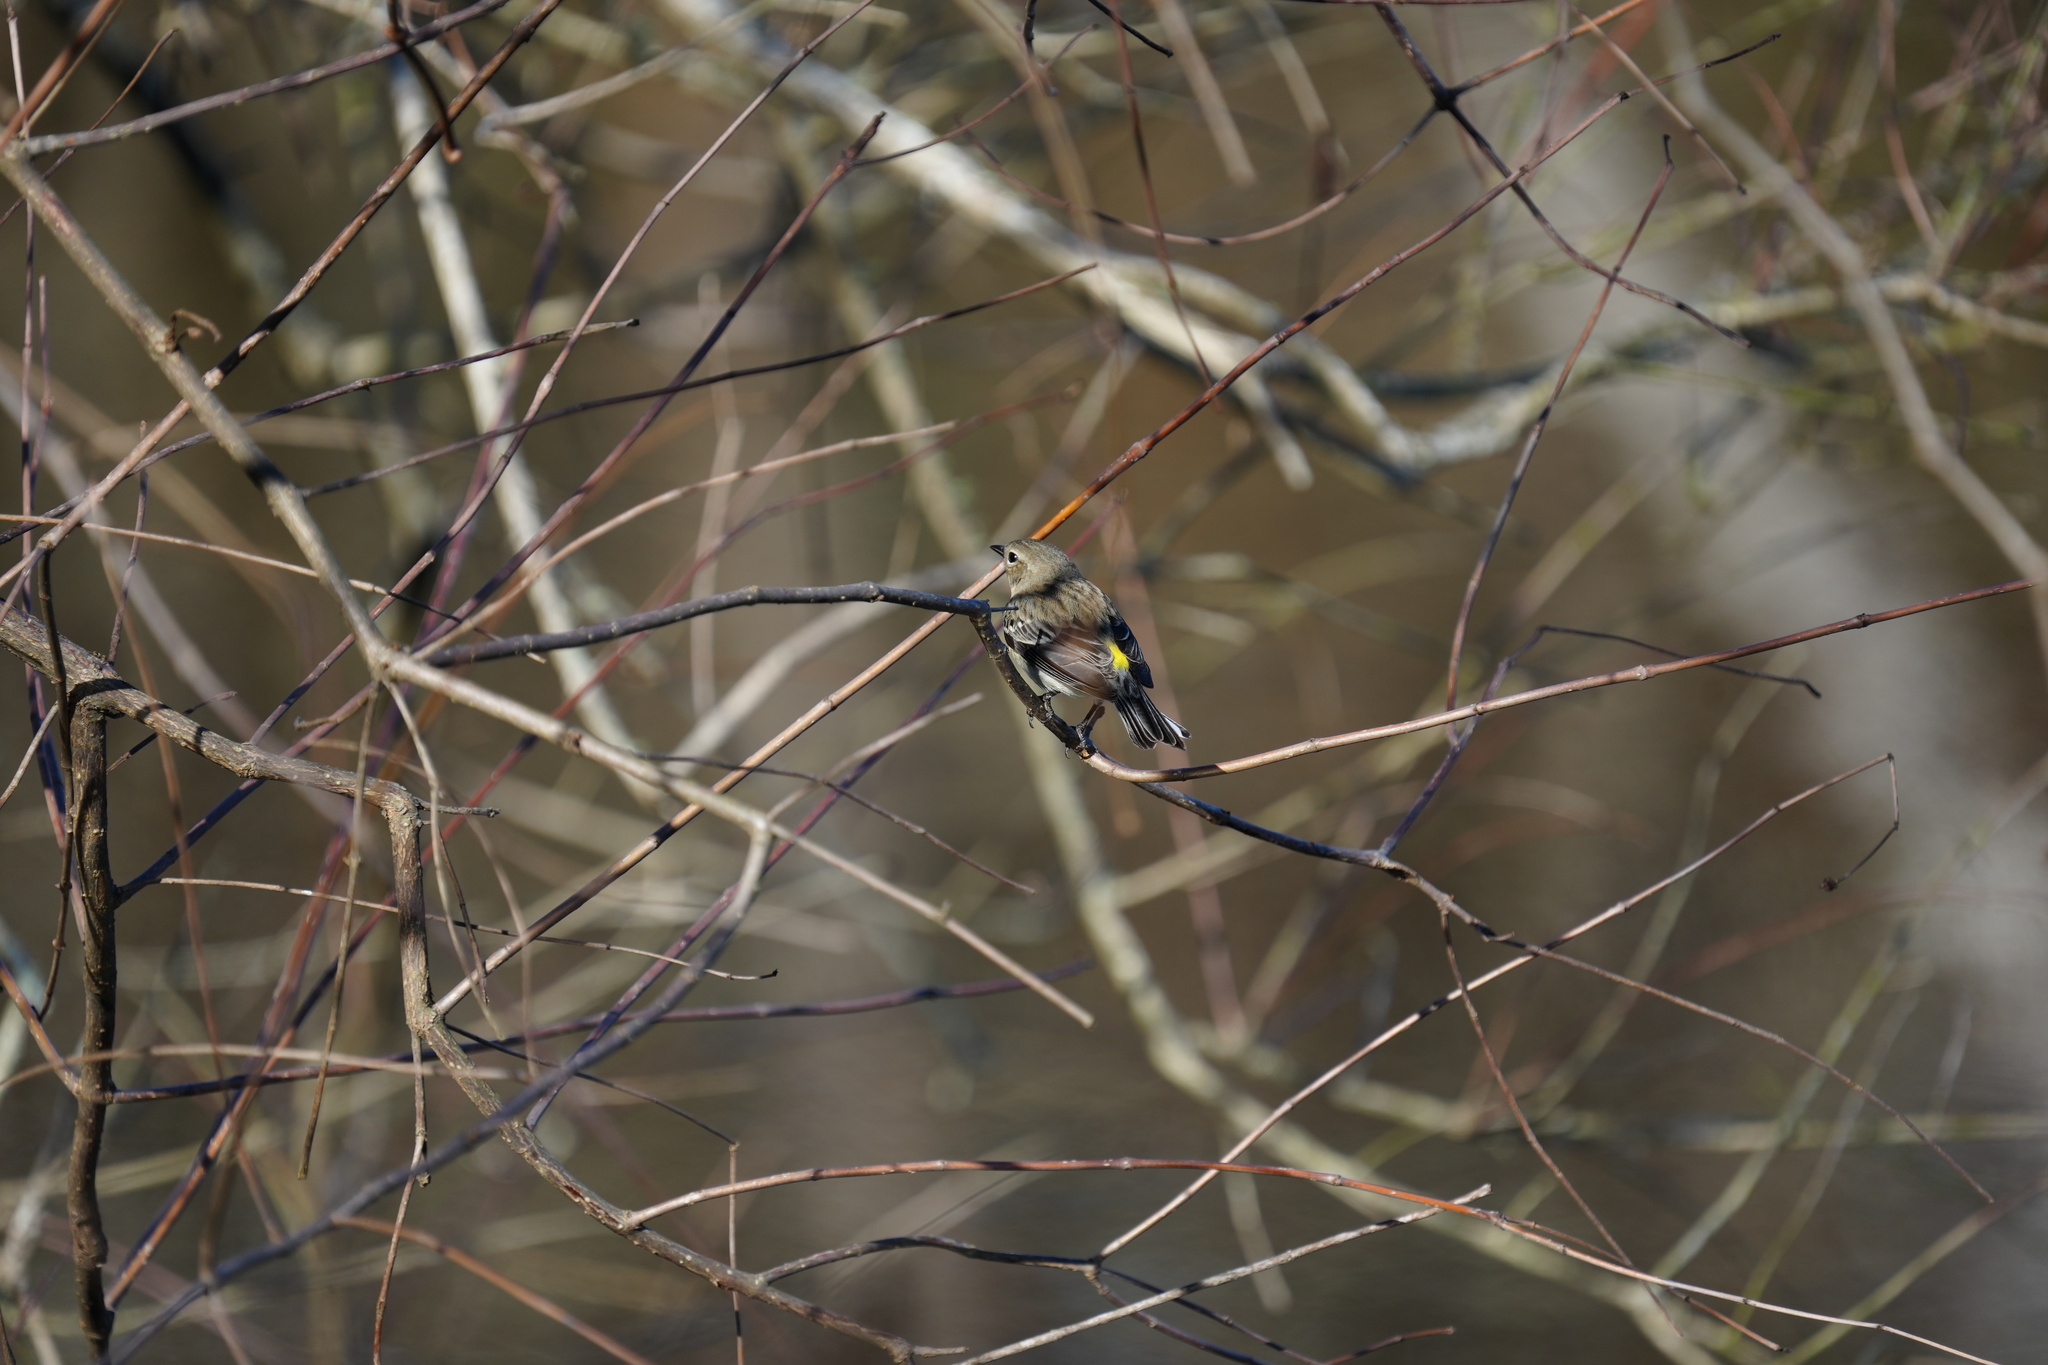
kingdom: Animalia
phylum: Chordata
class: Aves
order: Passeriformes
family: Parulidae
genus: Setophaga
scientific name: Setophaga coronata
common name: Myrtle warbler
